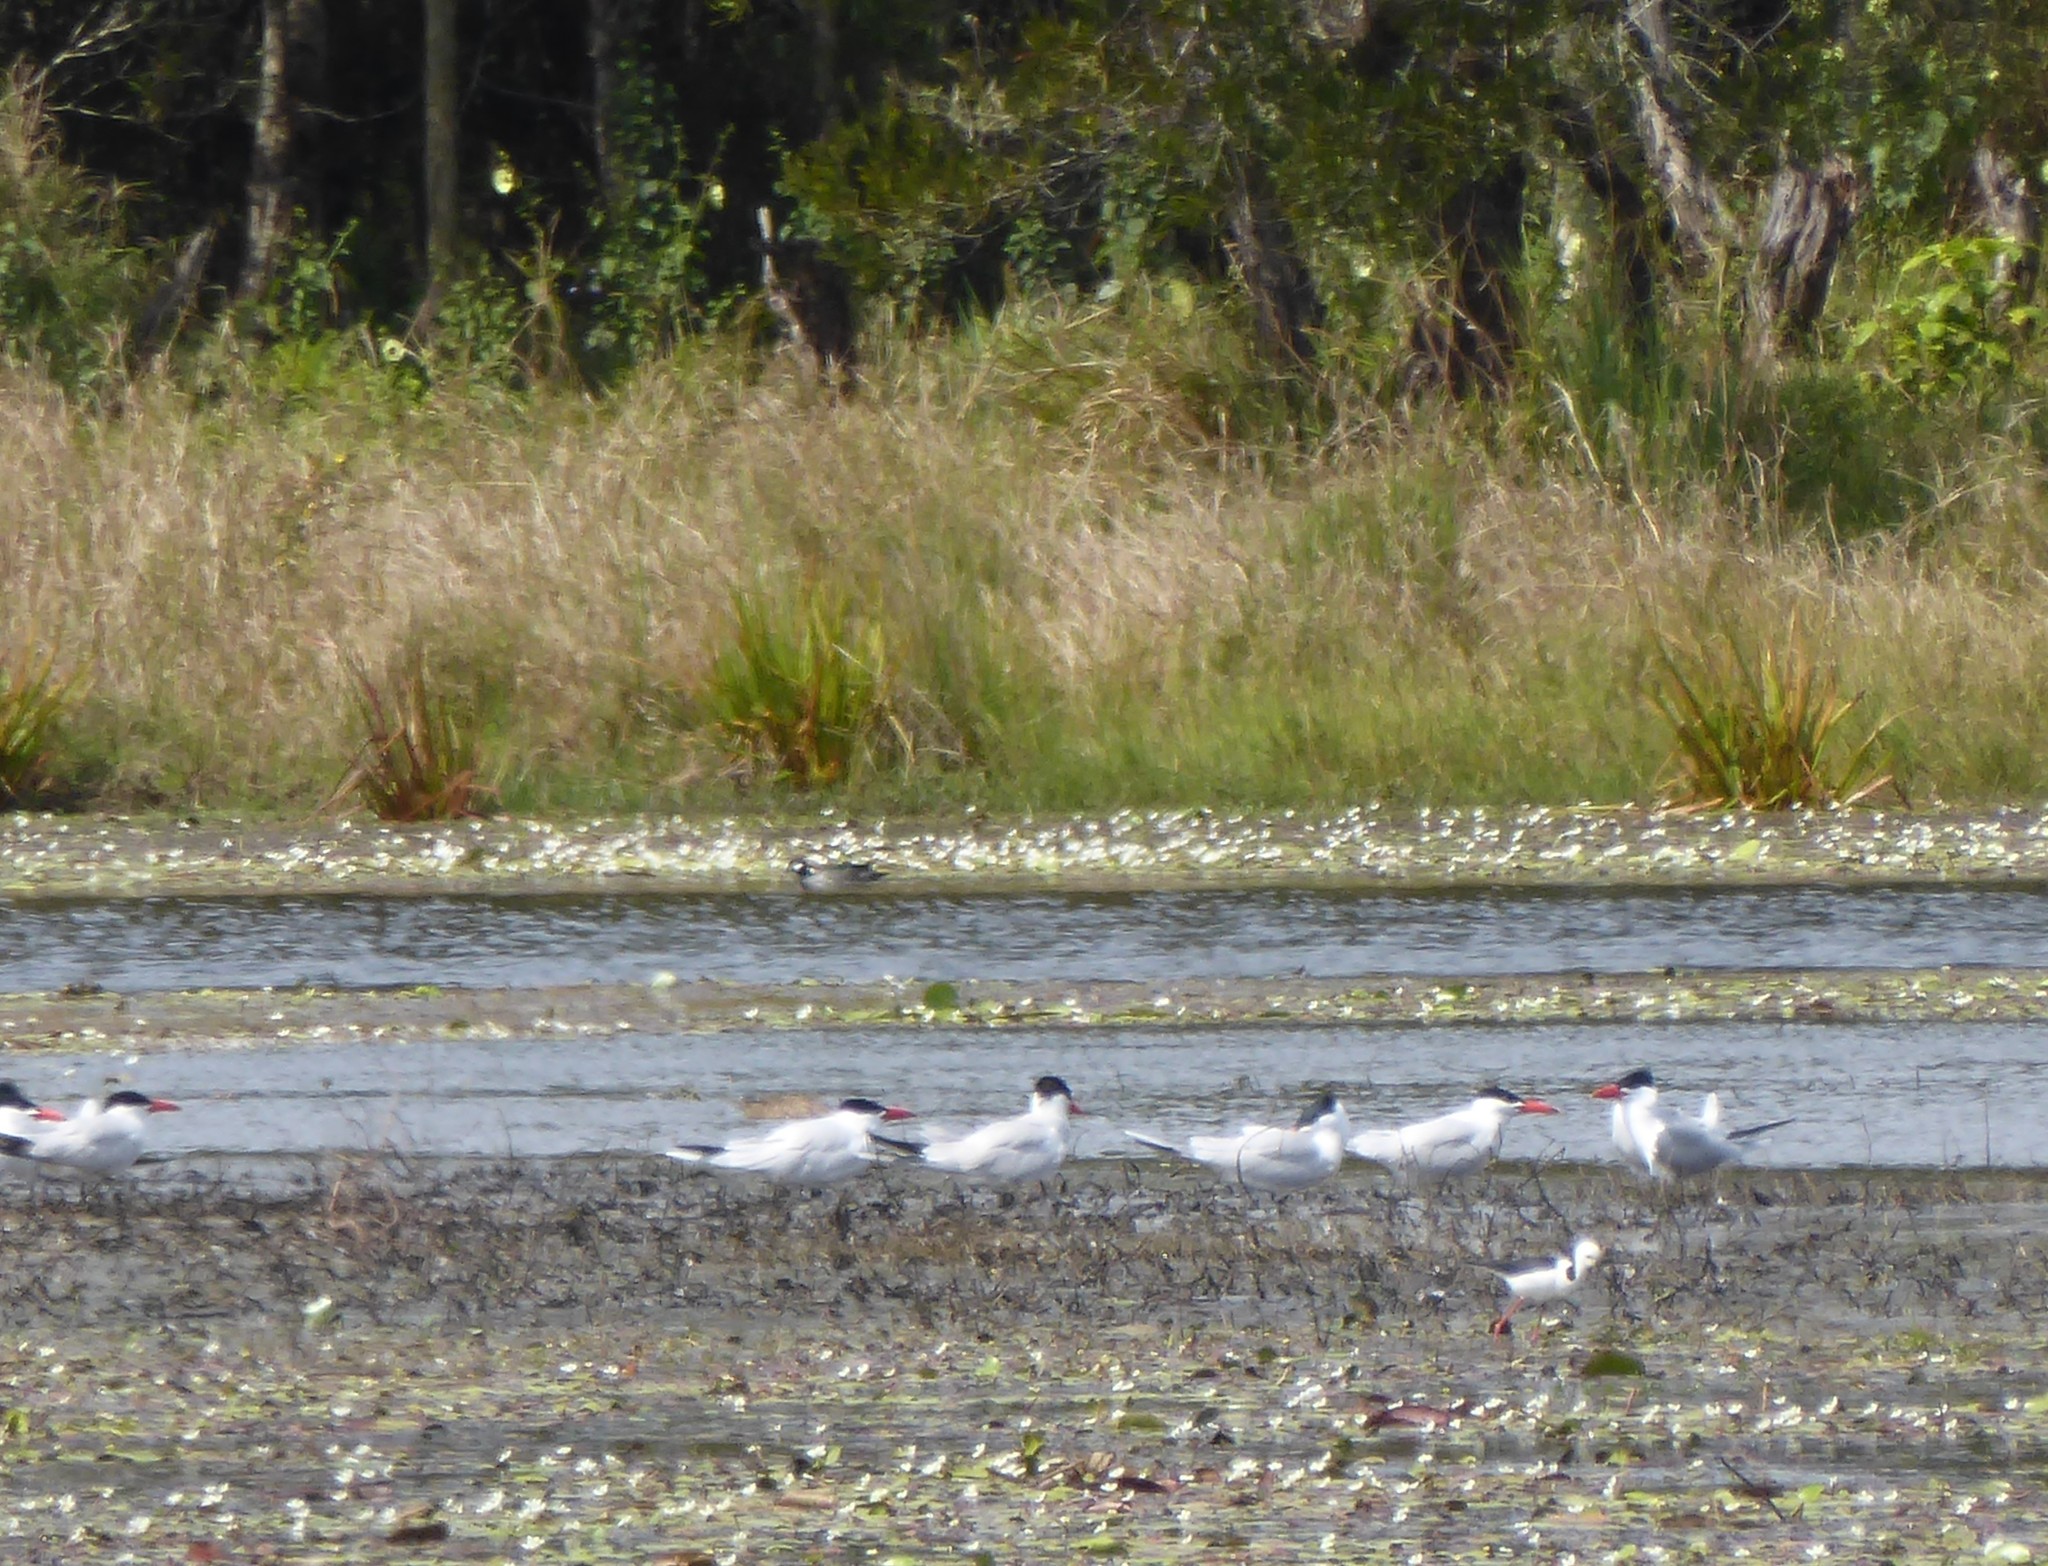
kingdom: Animalia
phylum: Chordata
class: Aves
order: Charadriiformes
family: Laridae
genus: Hydroprogne
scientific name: Hydroprogne caspia
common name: Caspian tern
